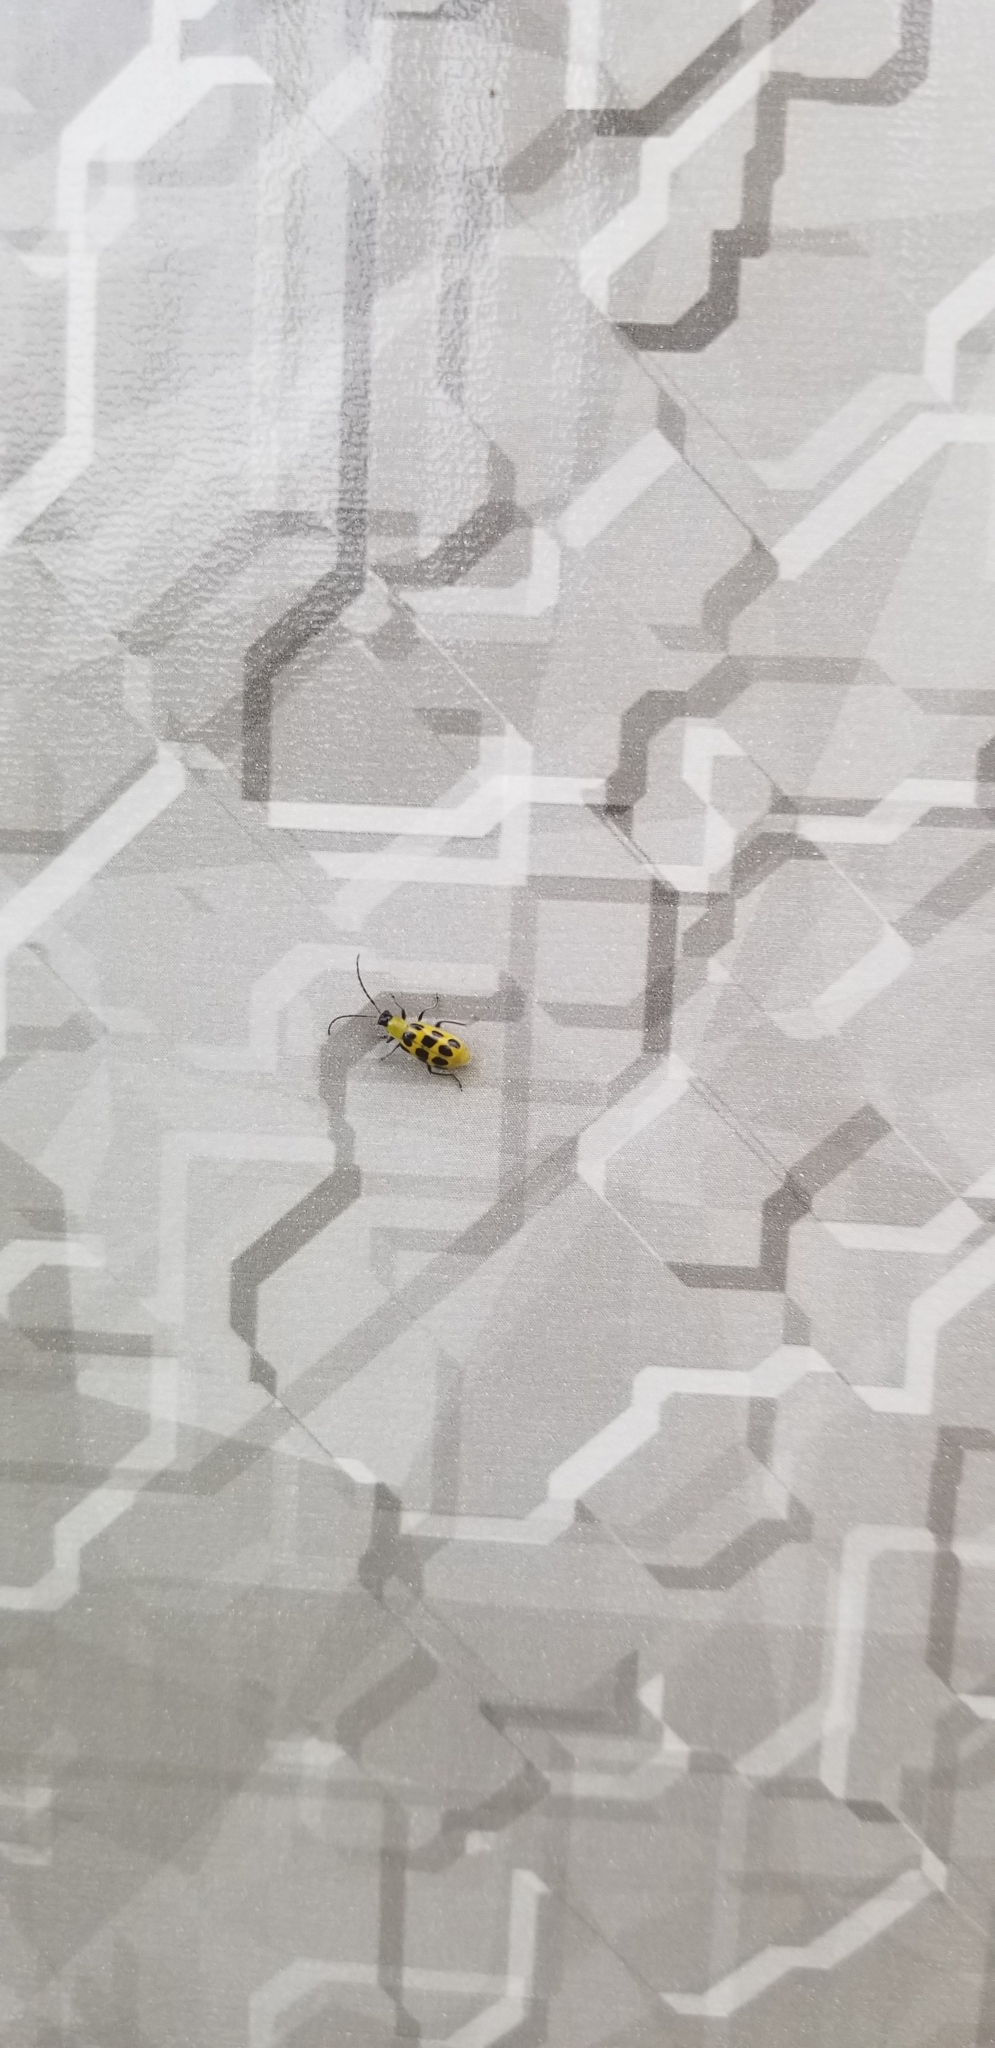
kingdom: Animalia
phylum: Arthropoda
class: Insecta
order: Coleoptera
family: Chrysomelidae
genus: Diabrotica
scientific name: Diabrotica undecimpunctata
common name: Spotted cucumber beetle
